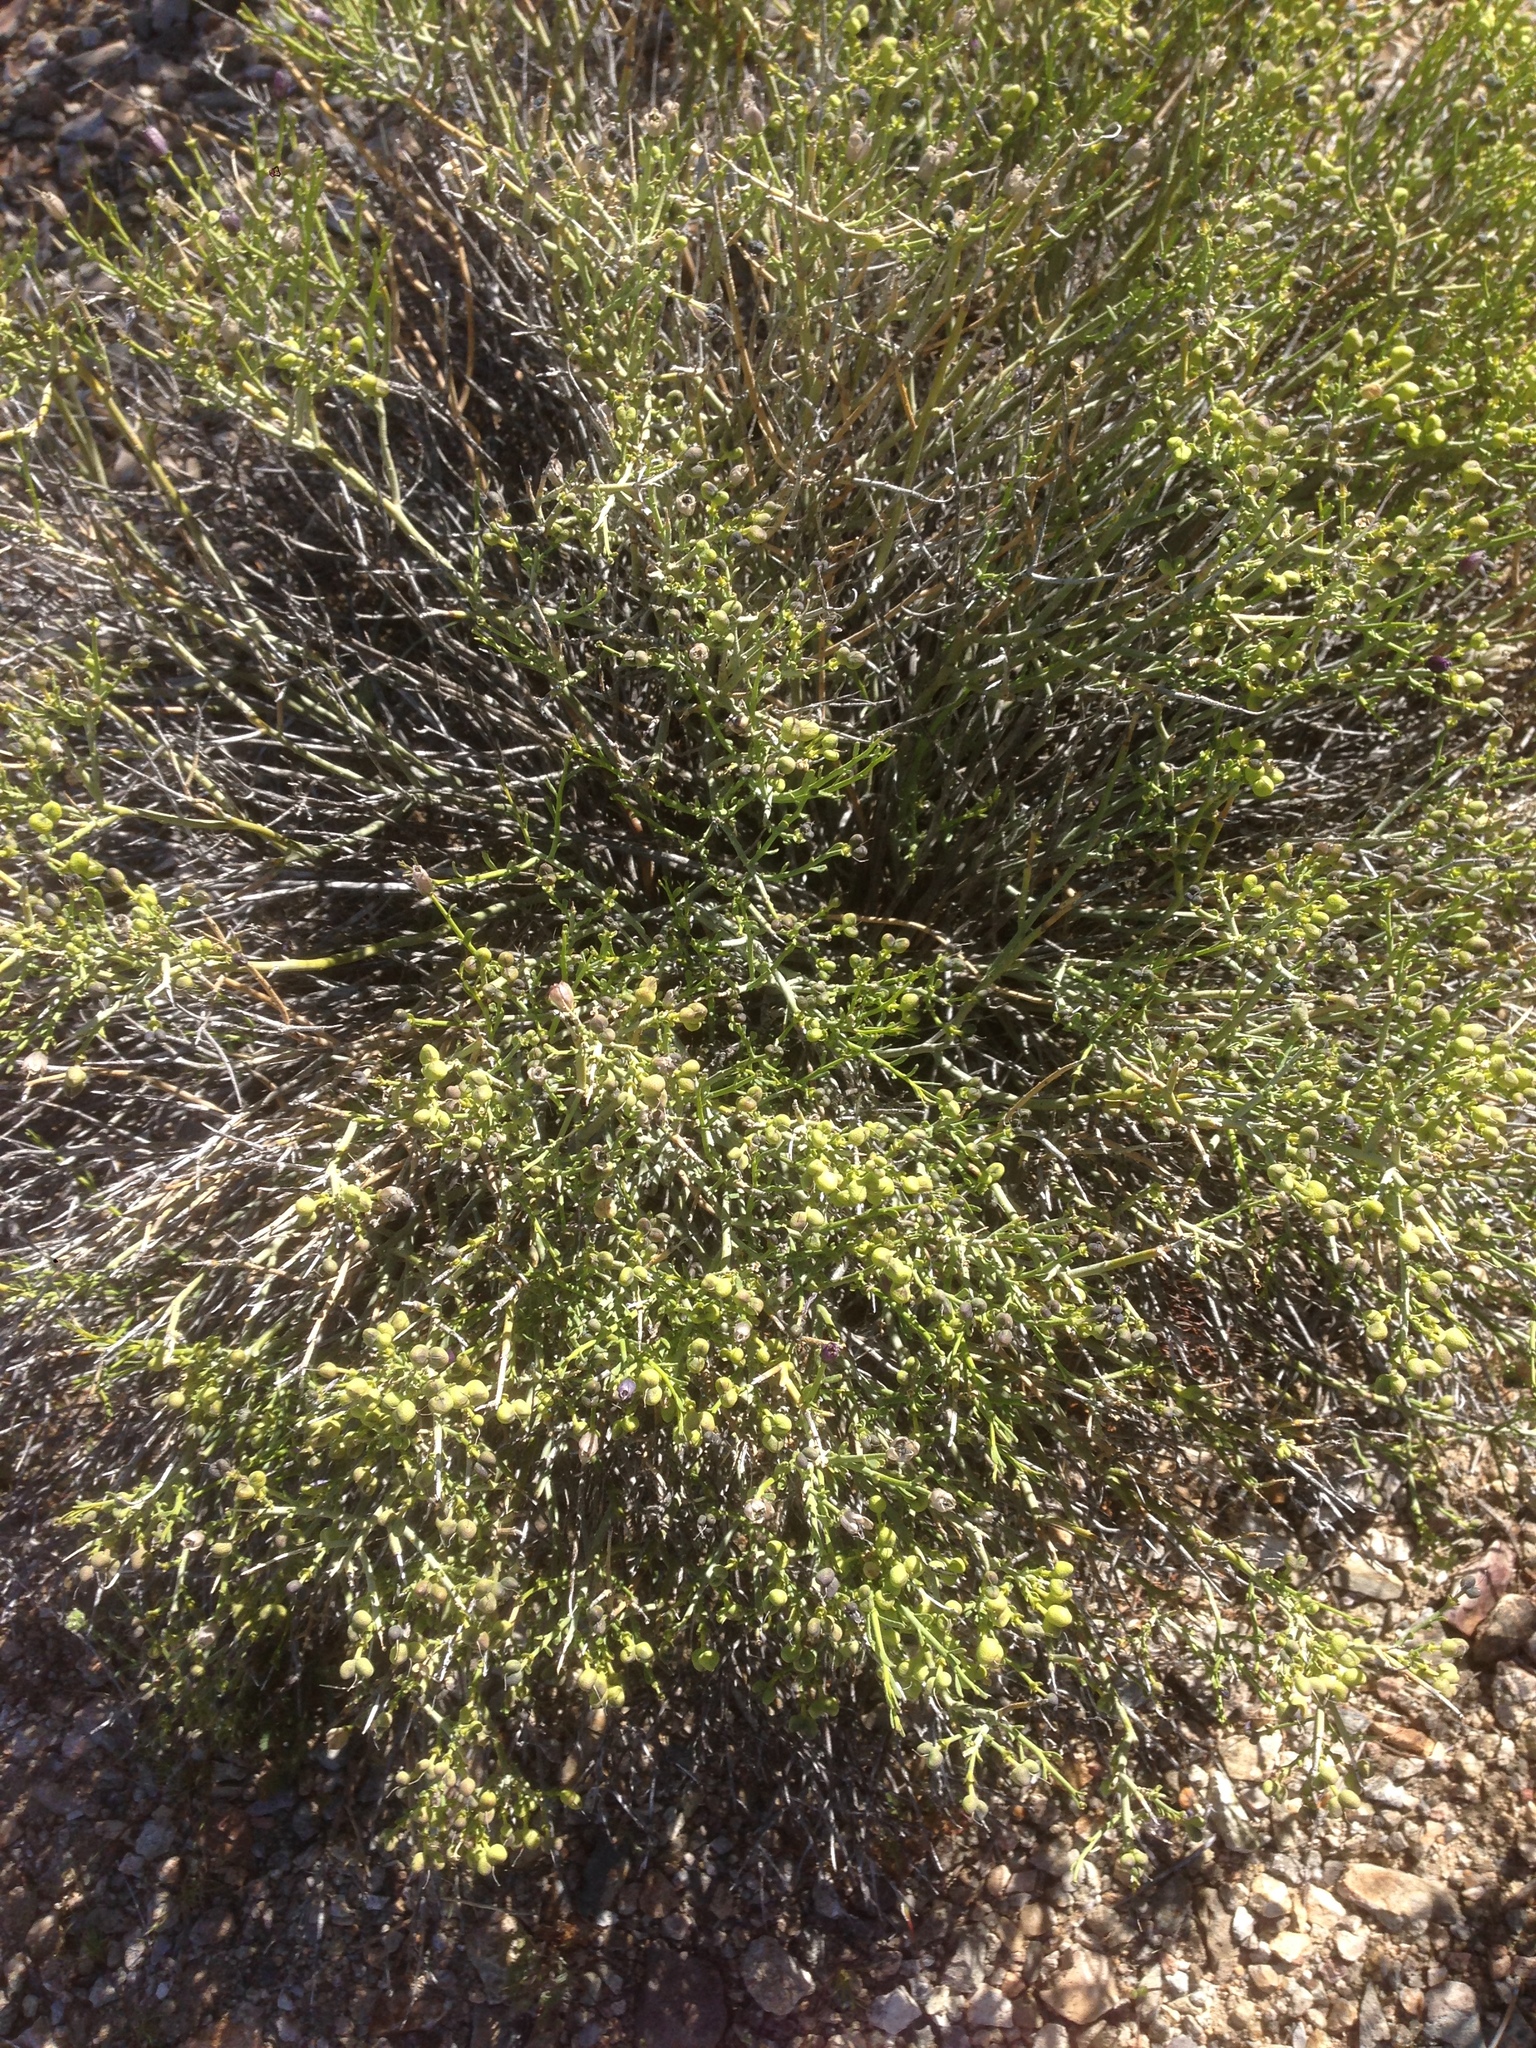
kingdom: Plantae
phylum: Tracheophyta
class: Magnoliopsida
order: Sapindales
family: Rutaceae
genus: Thamnosma
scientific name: Thamnosma montana
